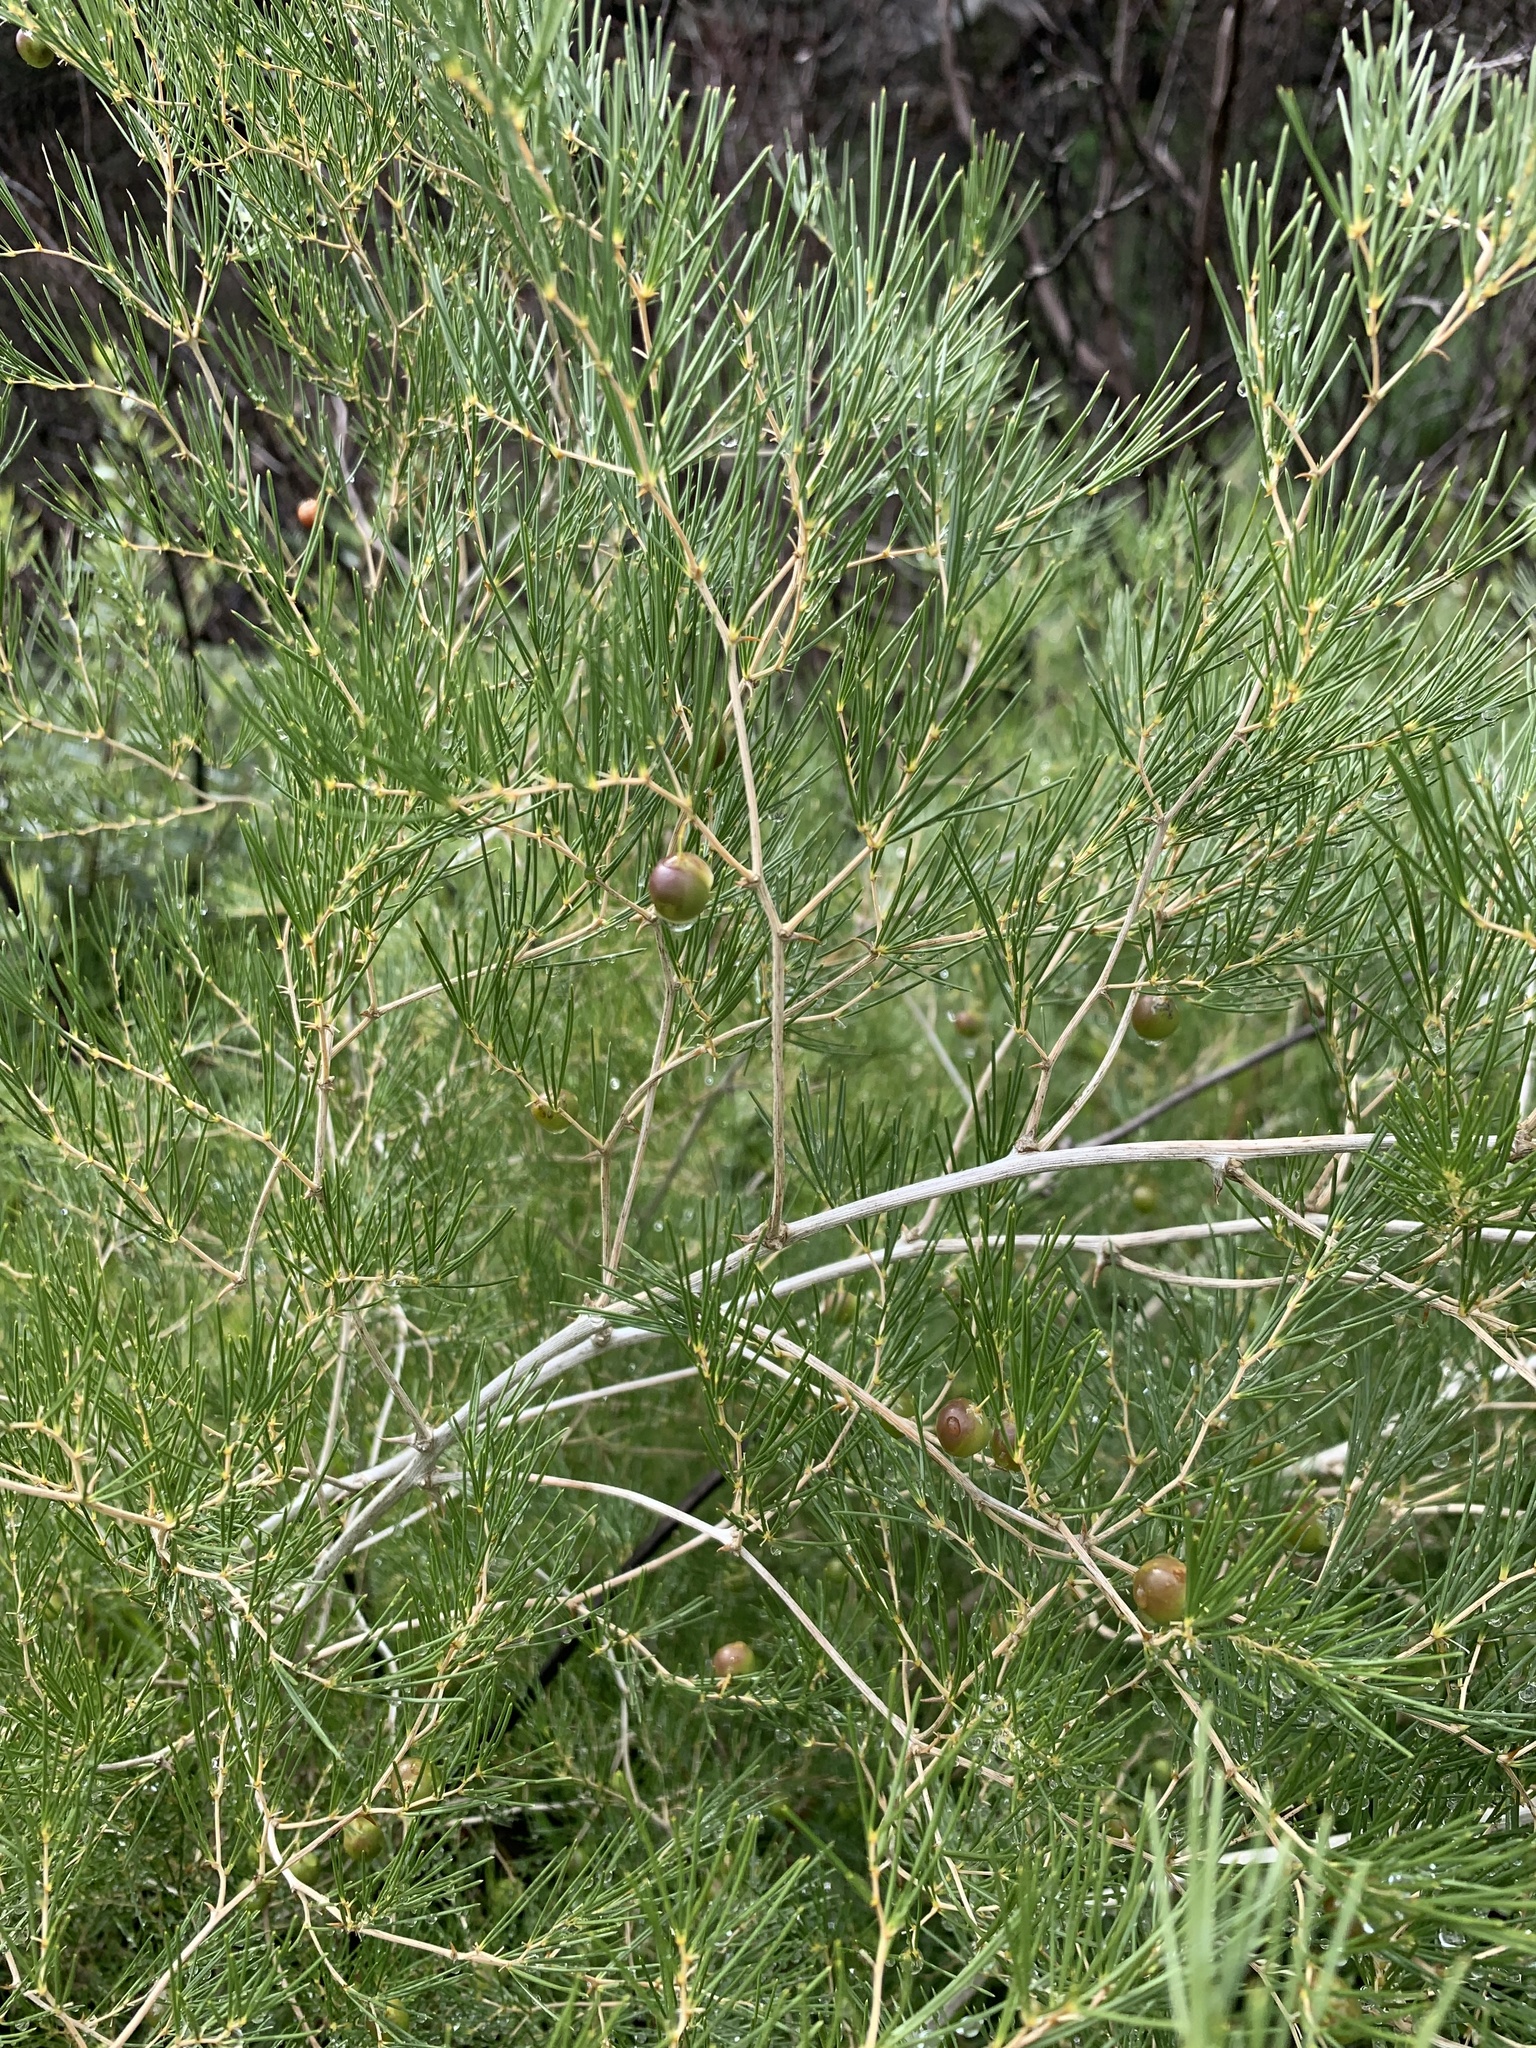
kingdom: Plantae
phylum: Tracheophyta
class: Liliopsida
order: Asparagales
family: Asparagaceae
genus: Asparagus
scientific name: Asparagus lignosus
